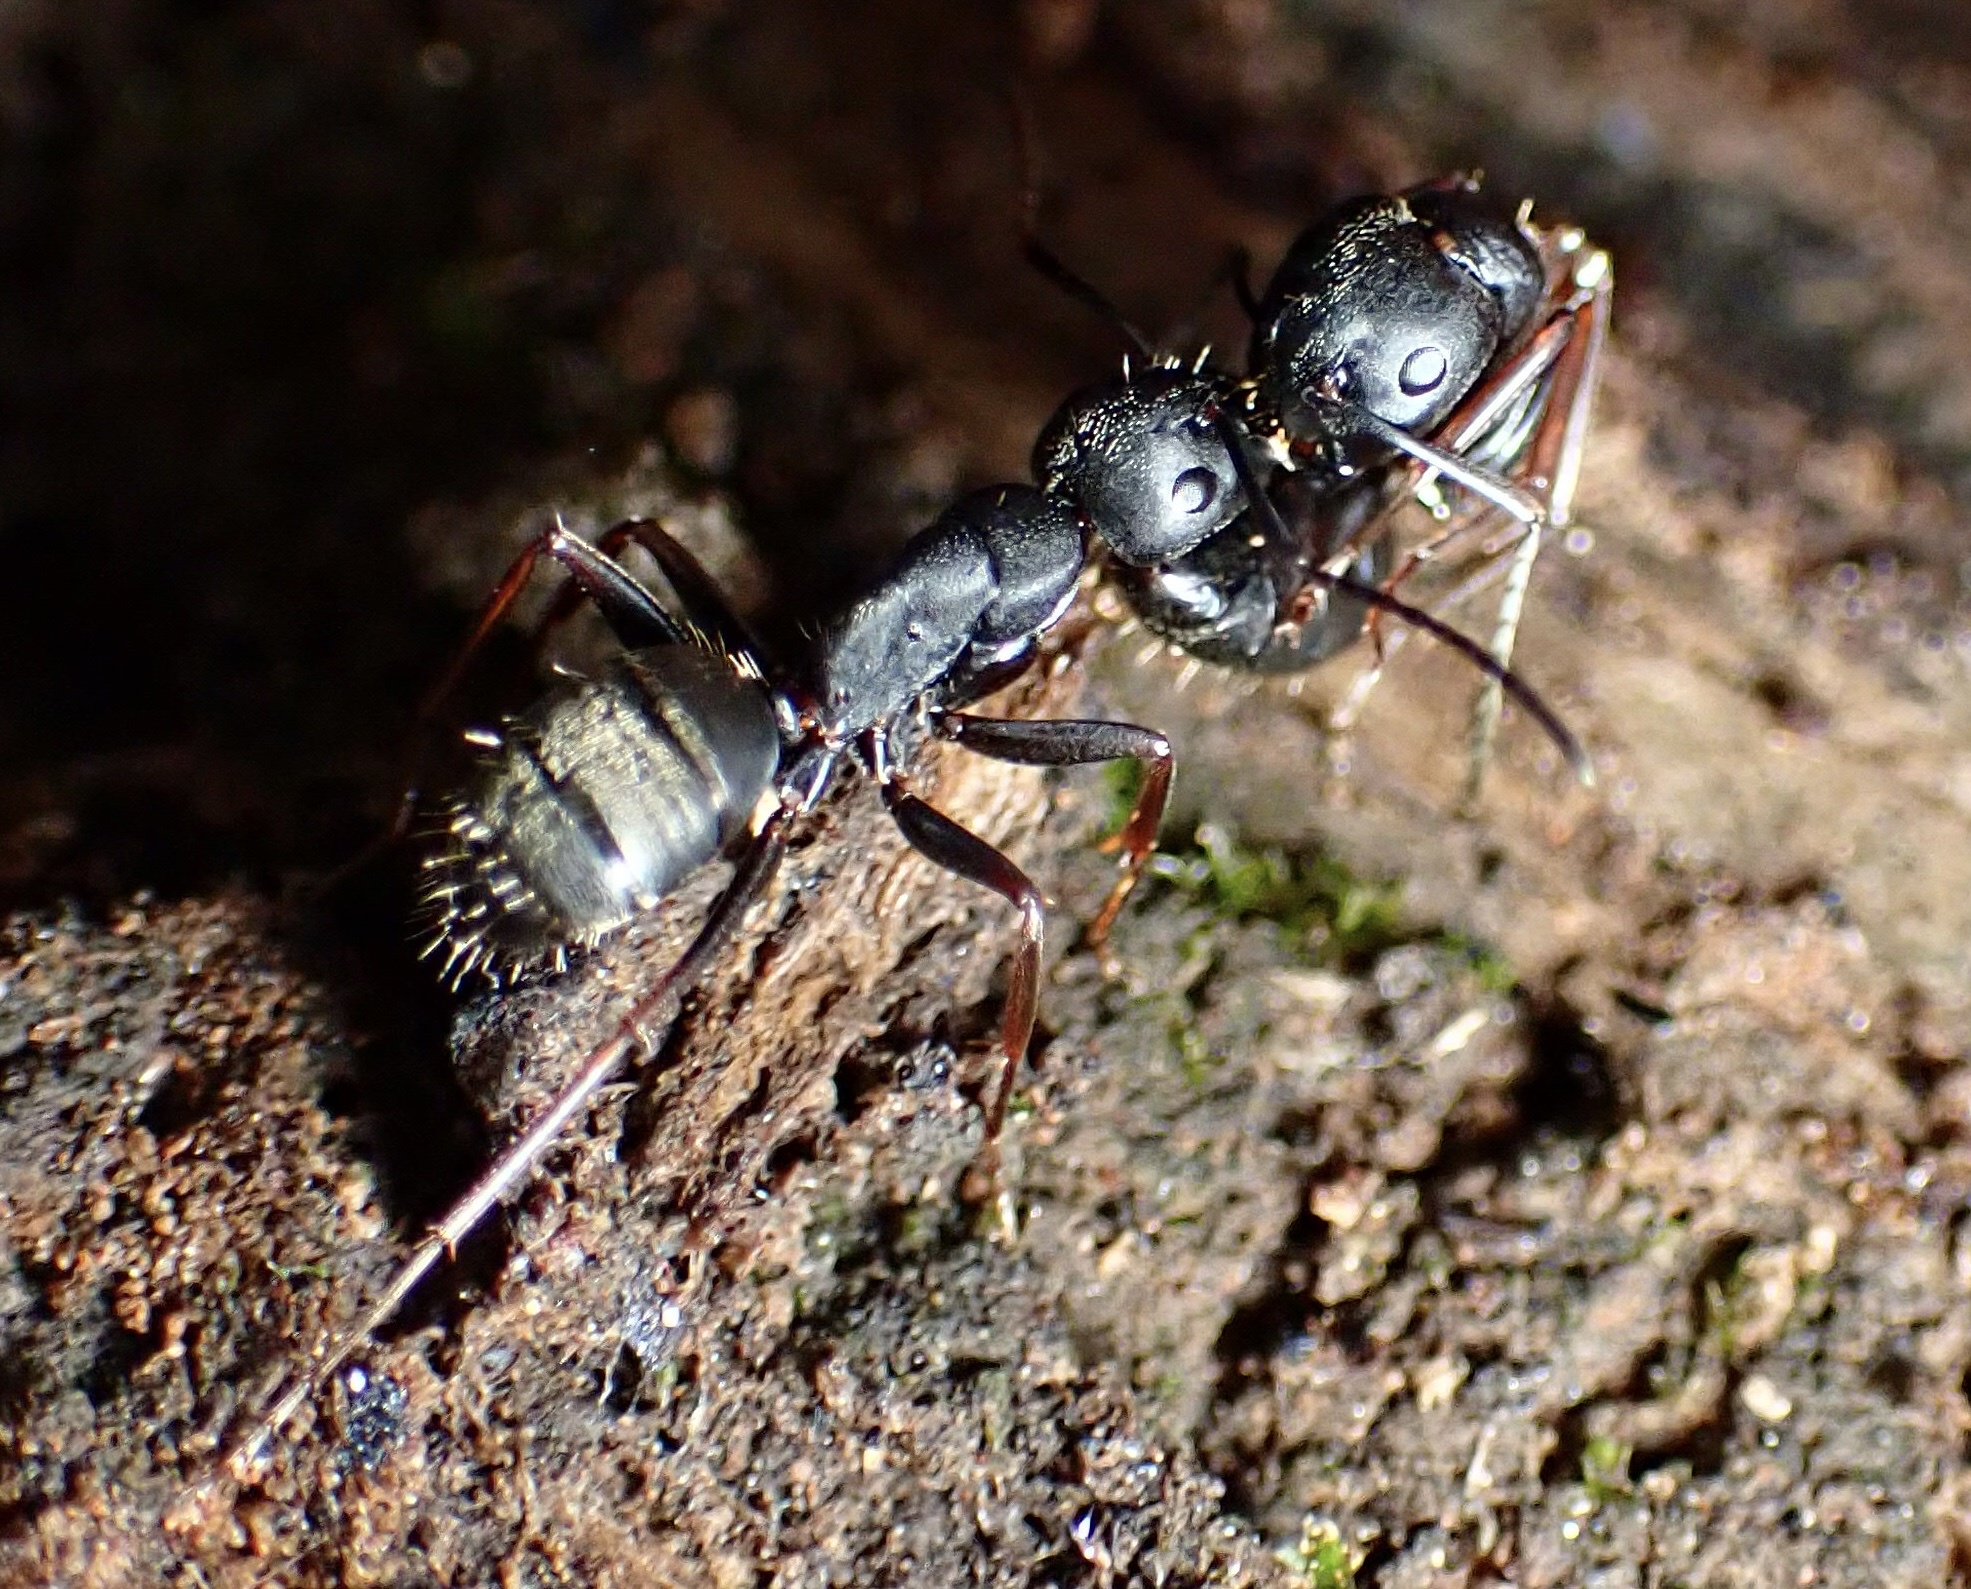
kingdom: Animalia
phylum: Arthropoda
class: Insecta
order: Hymenoptera
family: Formicidae
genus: Camponotus
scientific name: Camponotus modoc
